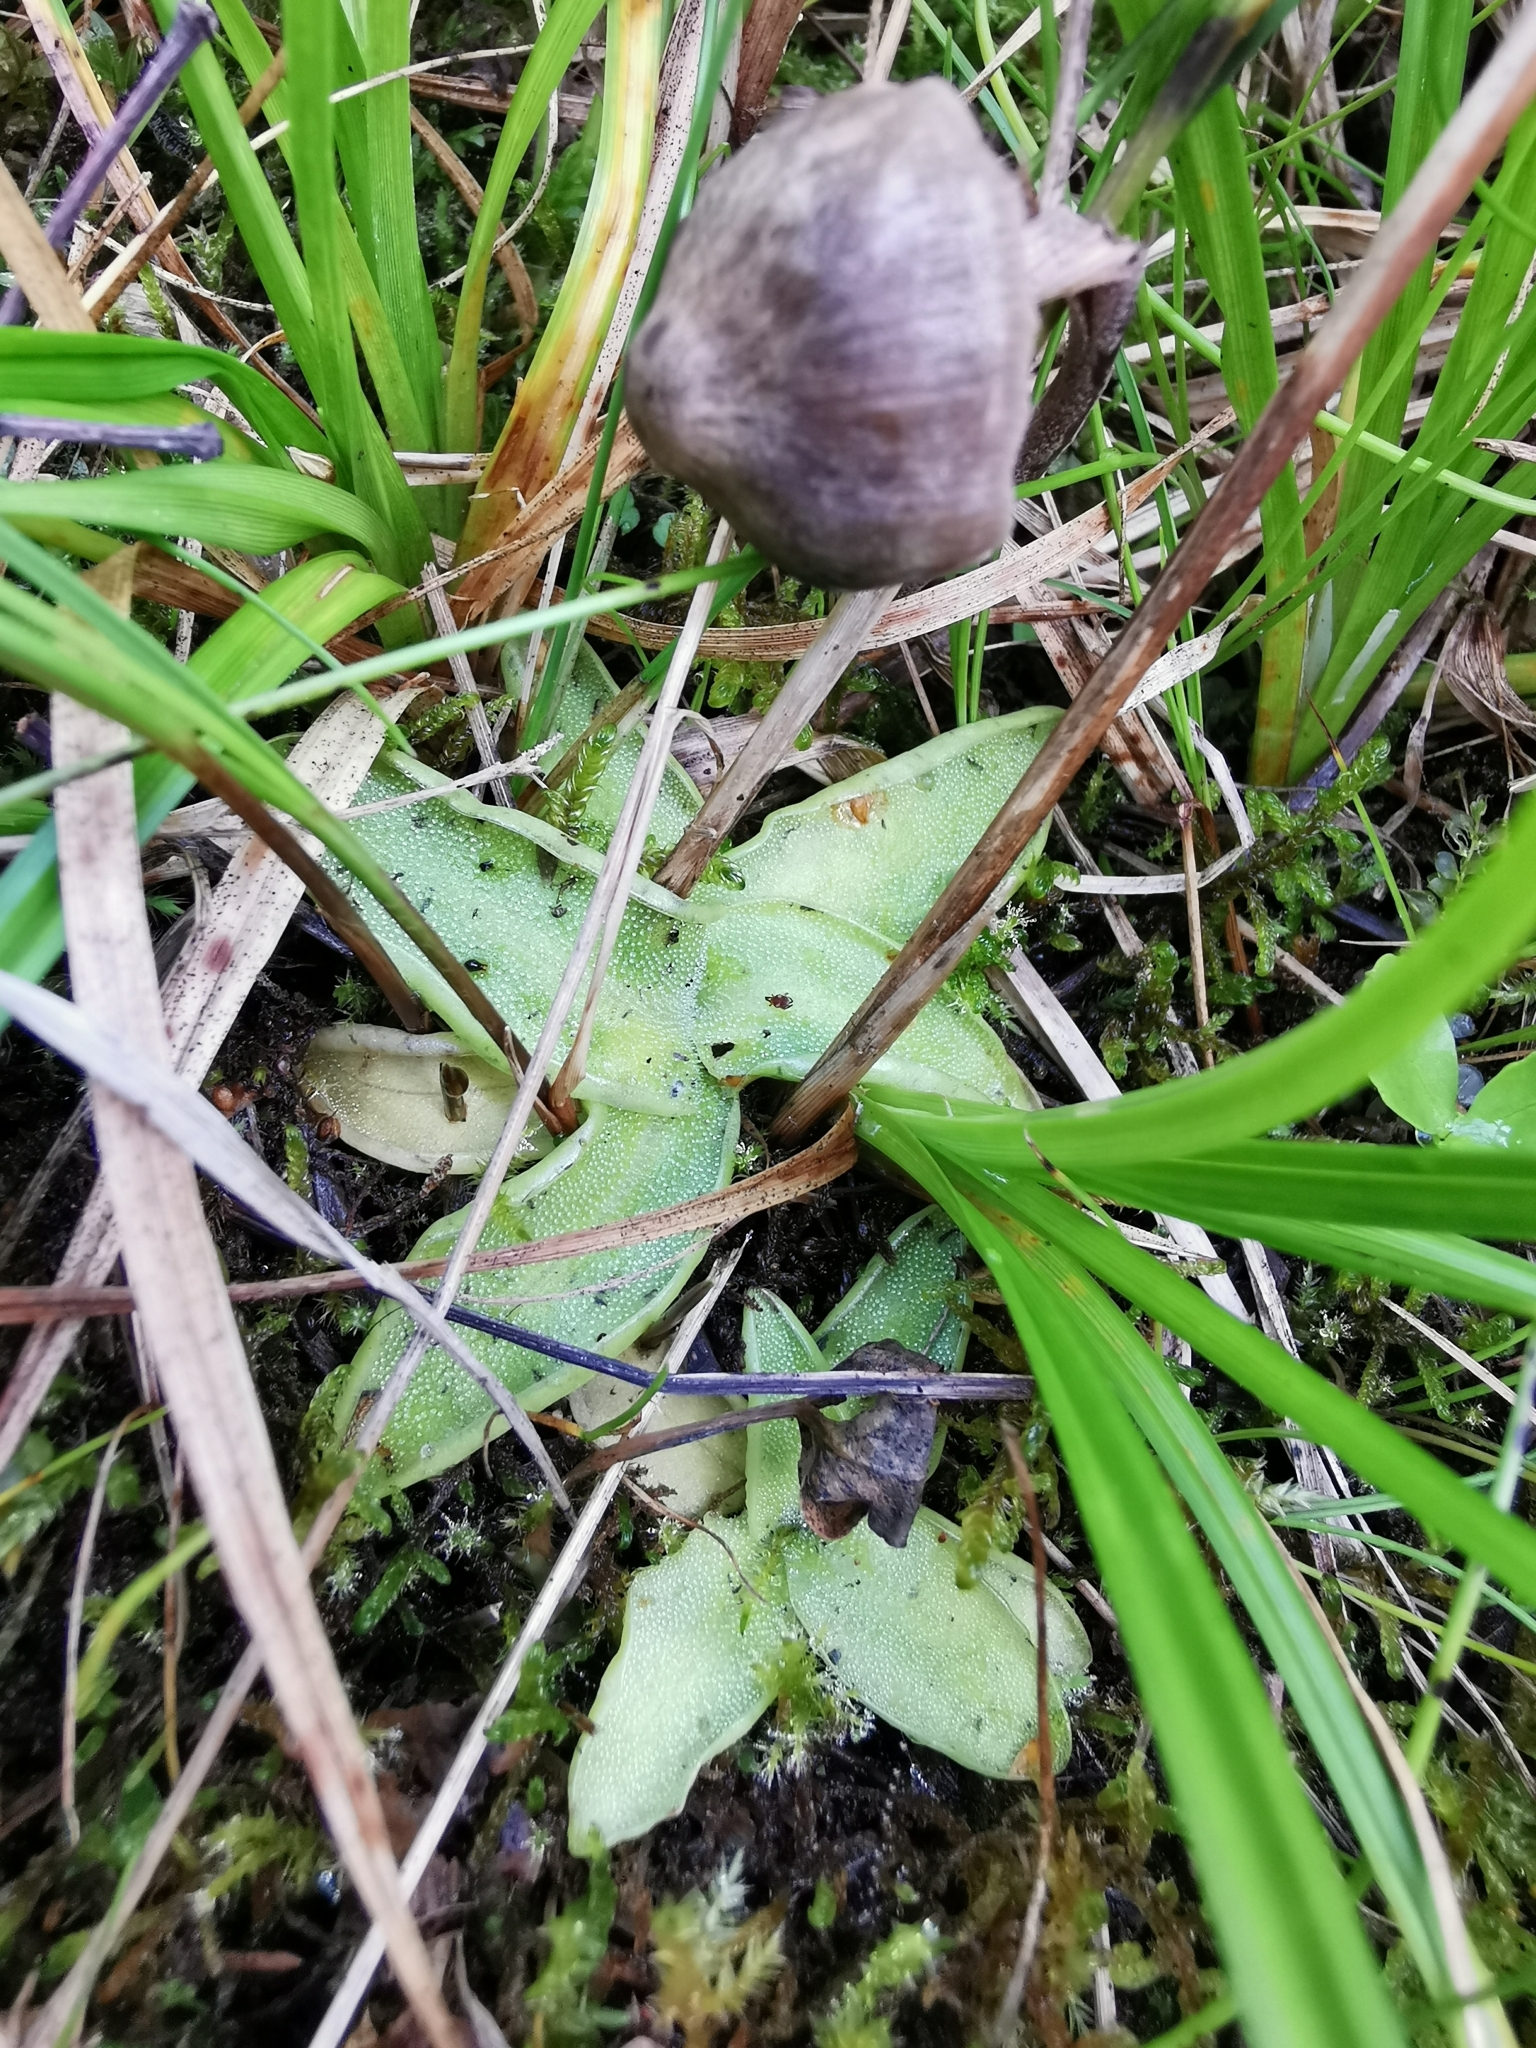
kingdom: Plantae
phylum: Tracheophyta
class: Magnoliopsida
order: Lamiales
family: Lentibulariaceae
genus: Pinguicula
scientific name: Pinguicula vulgaris
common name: Common butterwort
